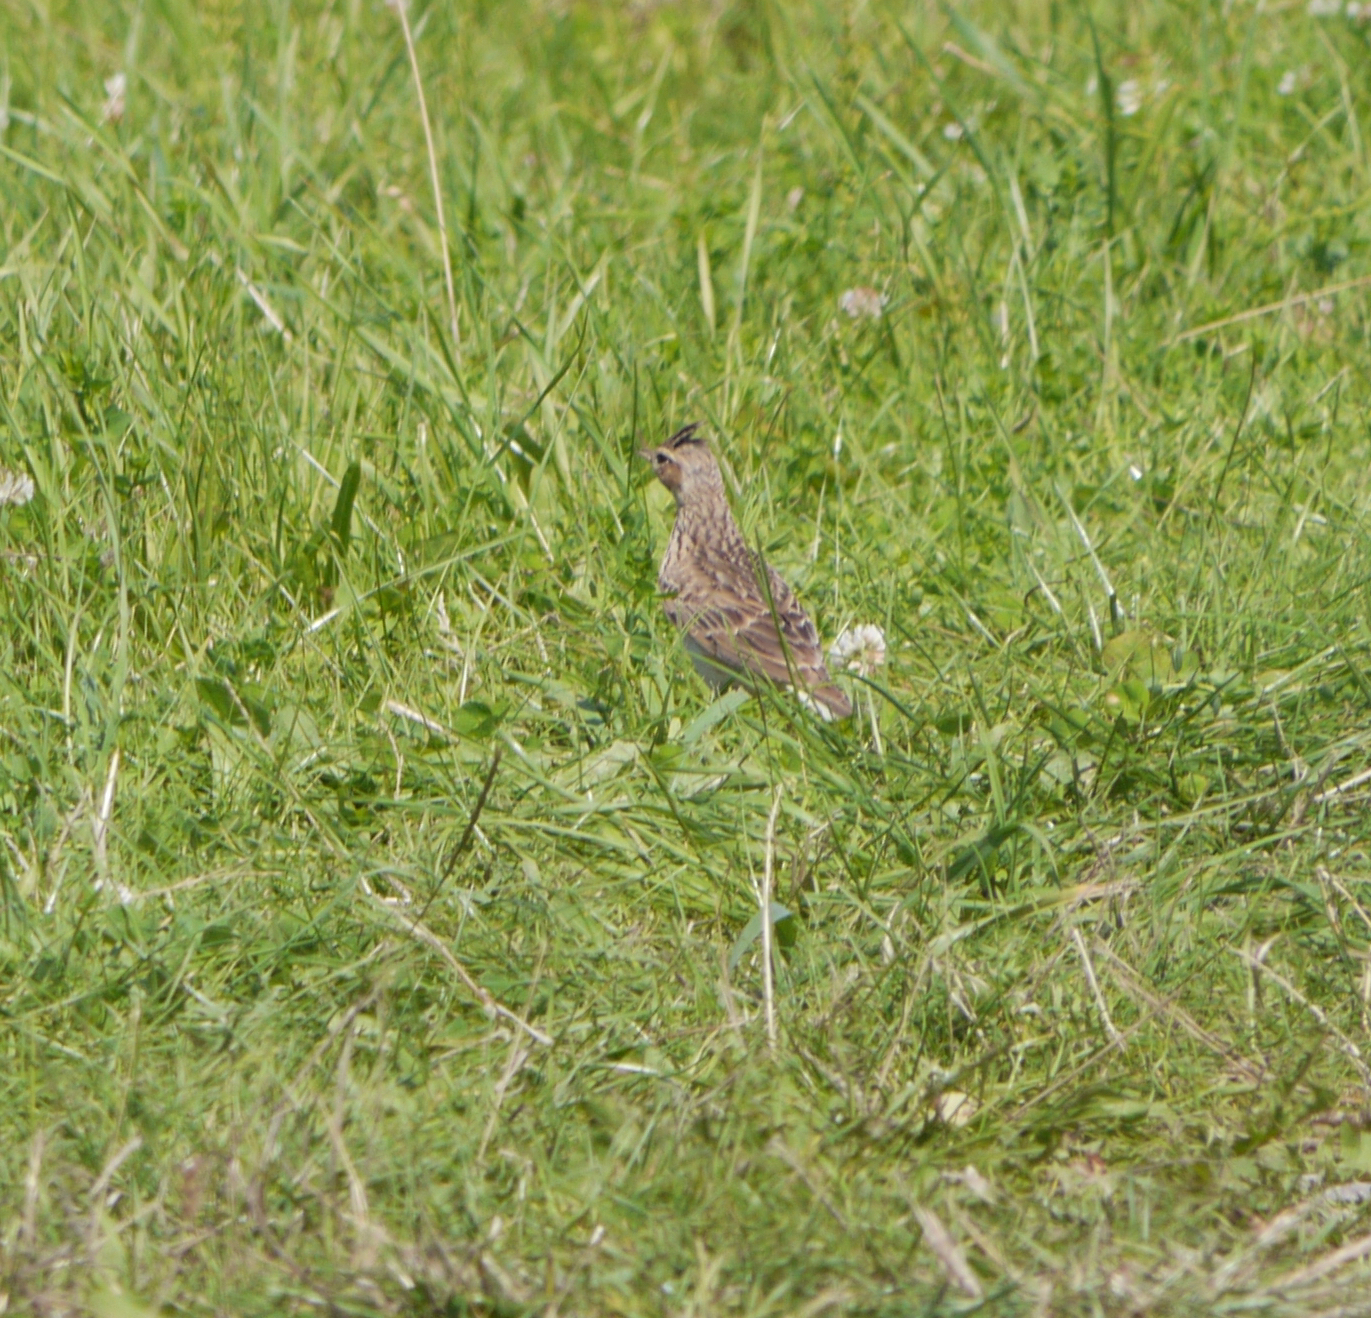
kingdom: Animalia
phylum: Chordata
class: Aves
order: Passeriformes
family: Alaudidae
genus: Alauda
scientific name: Alauda arvensis
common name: Eurasian skylark
